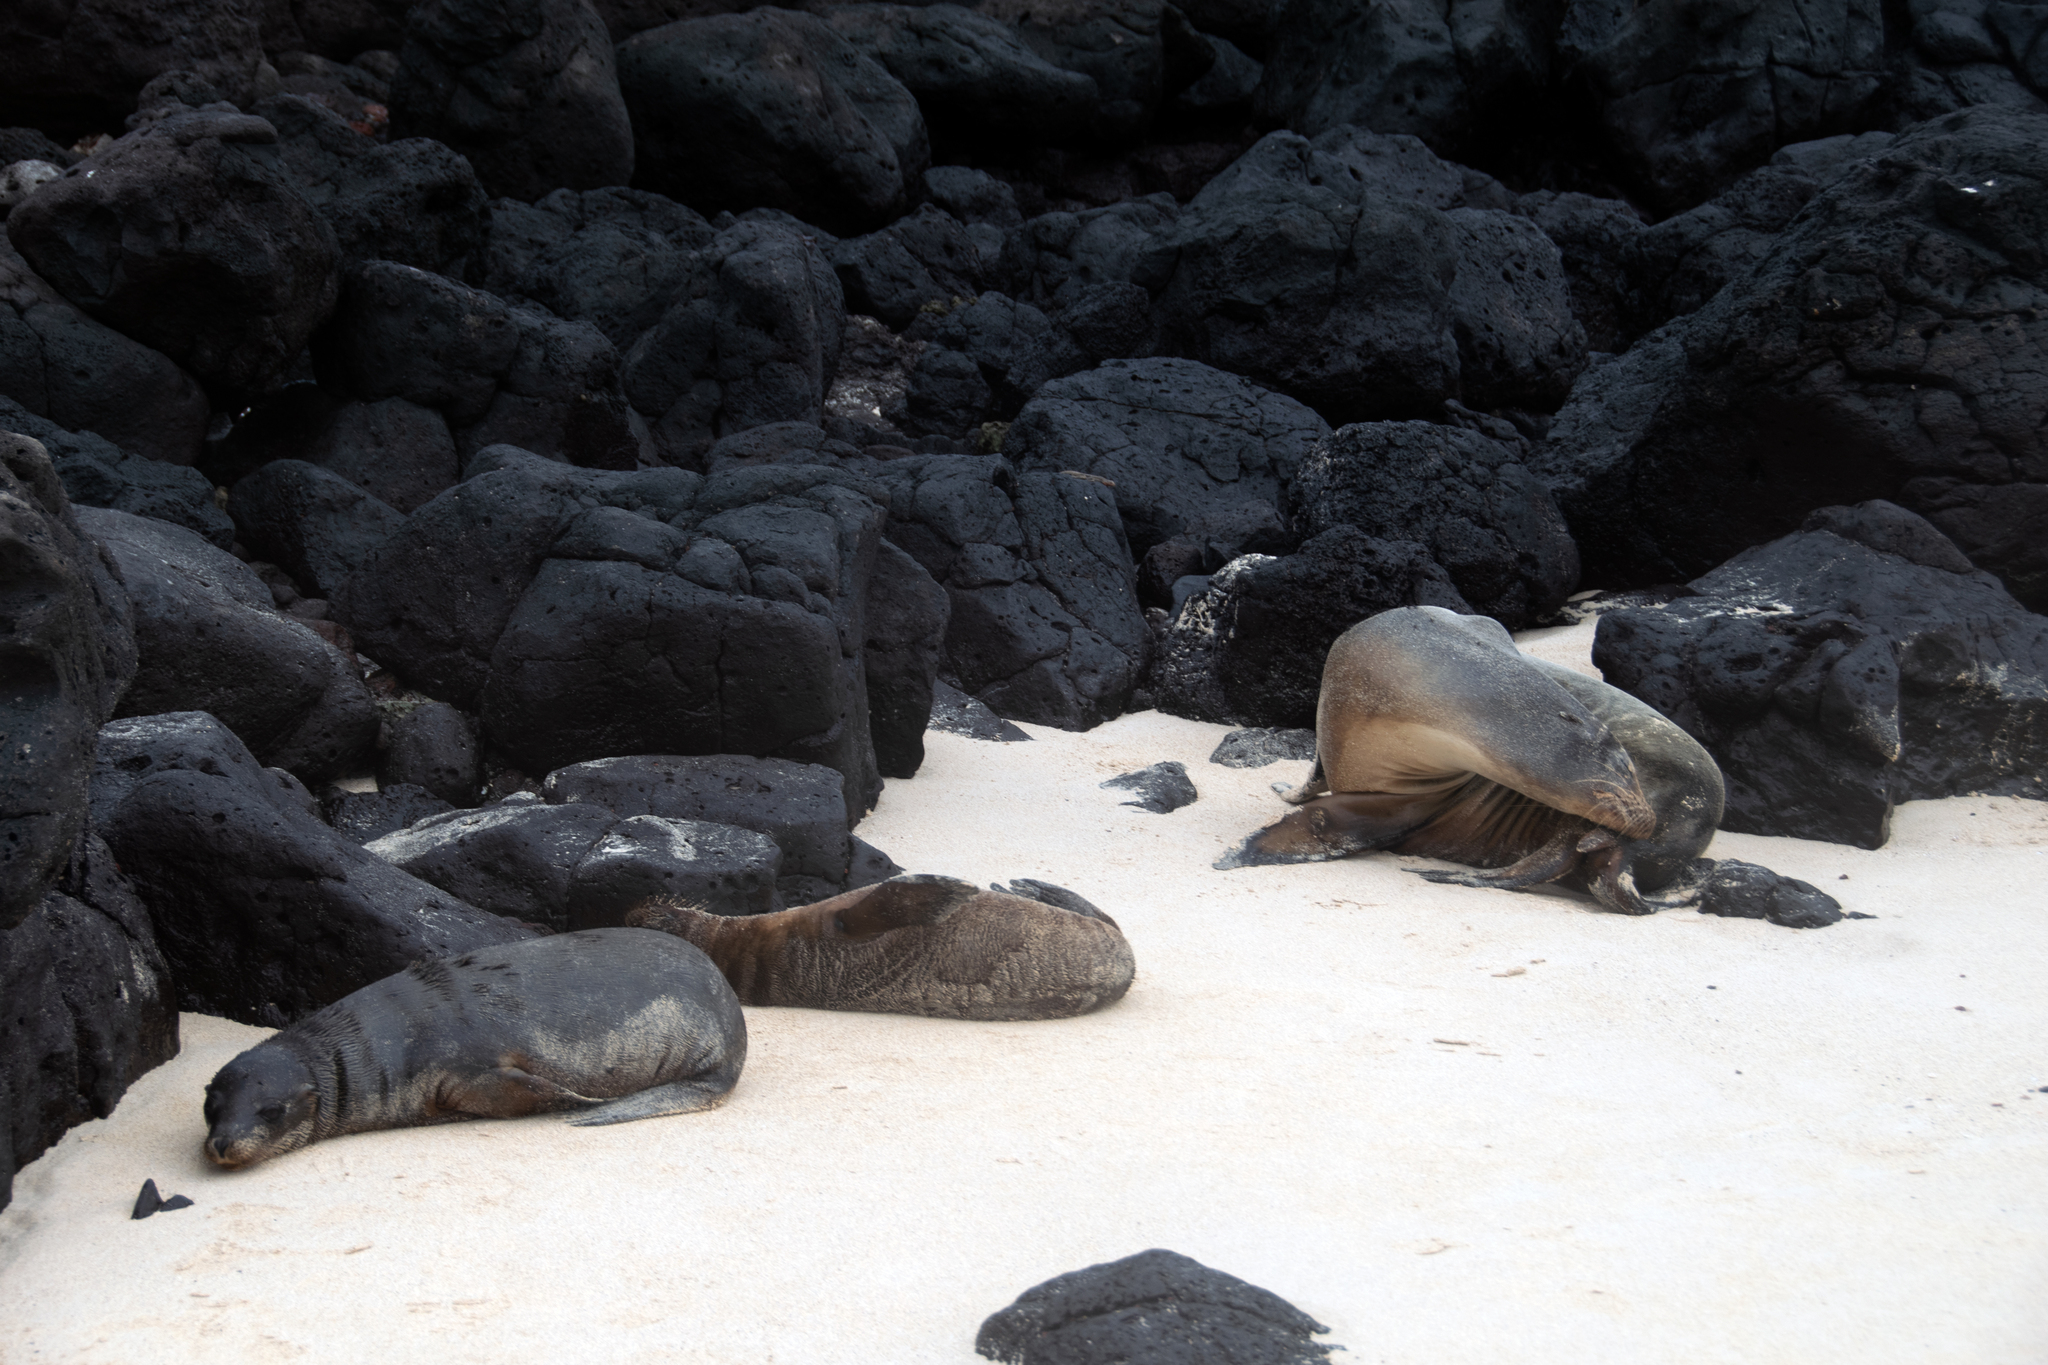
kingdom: Animalia
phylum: Chordata
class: Mammalia
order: Carnivora
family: Otariidae
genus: Zalophus
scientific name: Zalophus wollebaeki
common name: Galapagos sea lion
